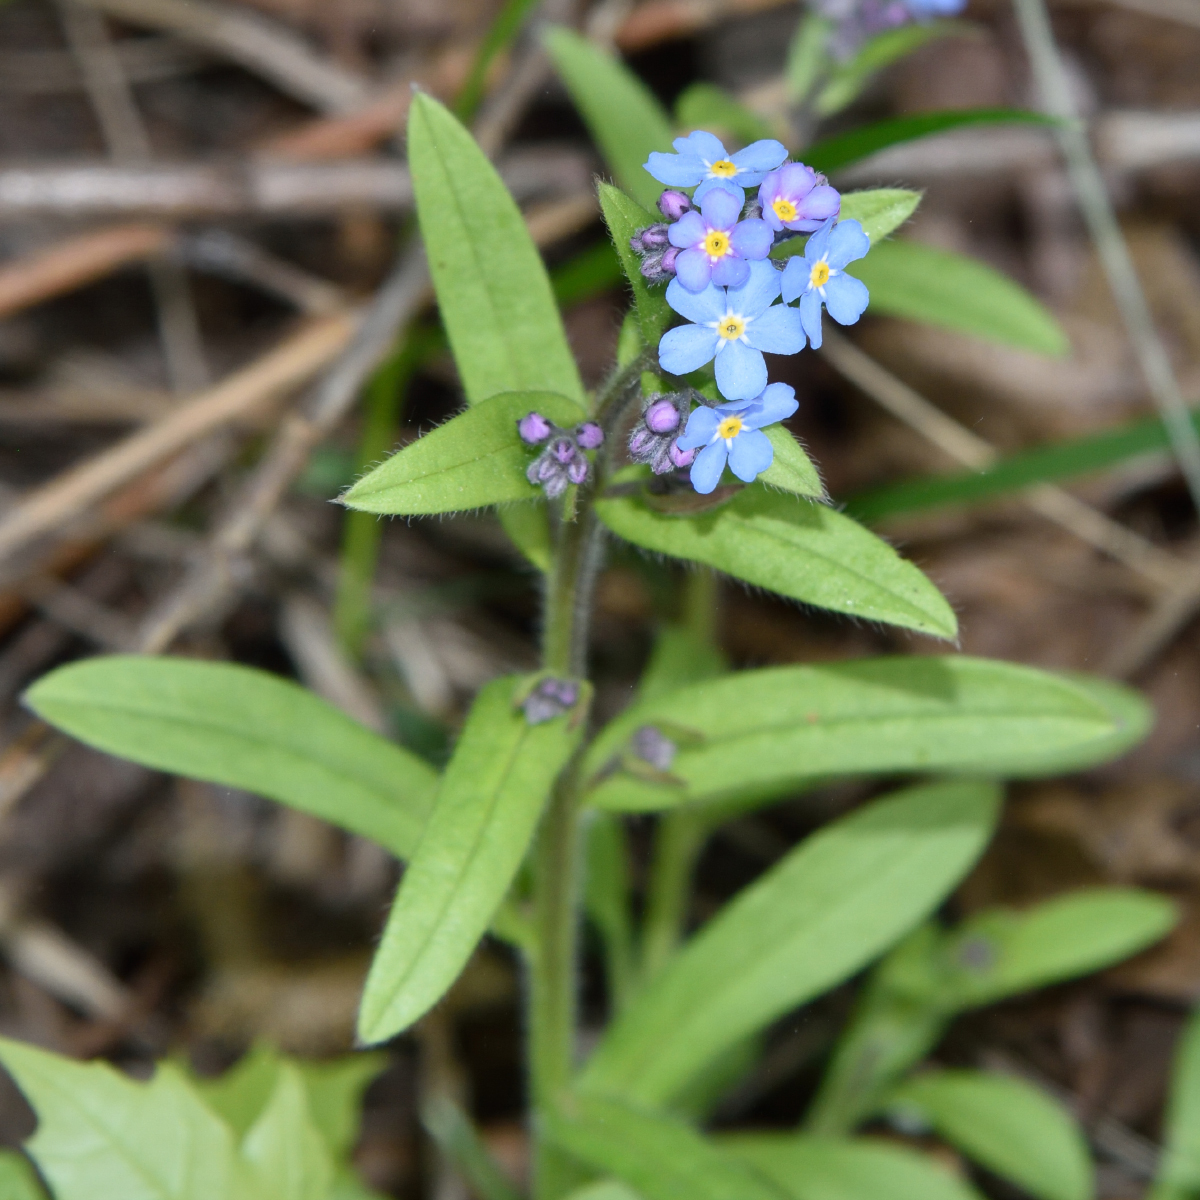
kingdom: Plantae
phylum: Tracheophyta
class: Magnoliopsida
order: Boraginales
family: Boraginaceae
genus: Myosotis
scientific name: Myosotis sylvatica
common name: Wood forget-me-not
